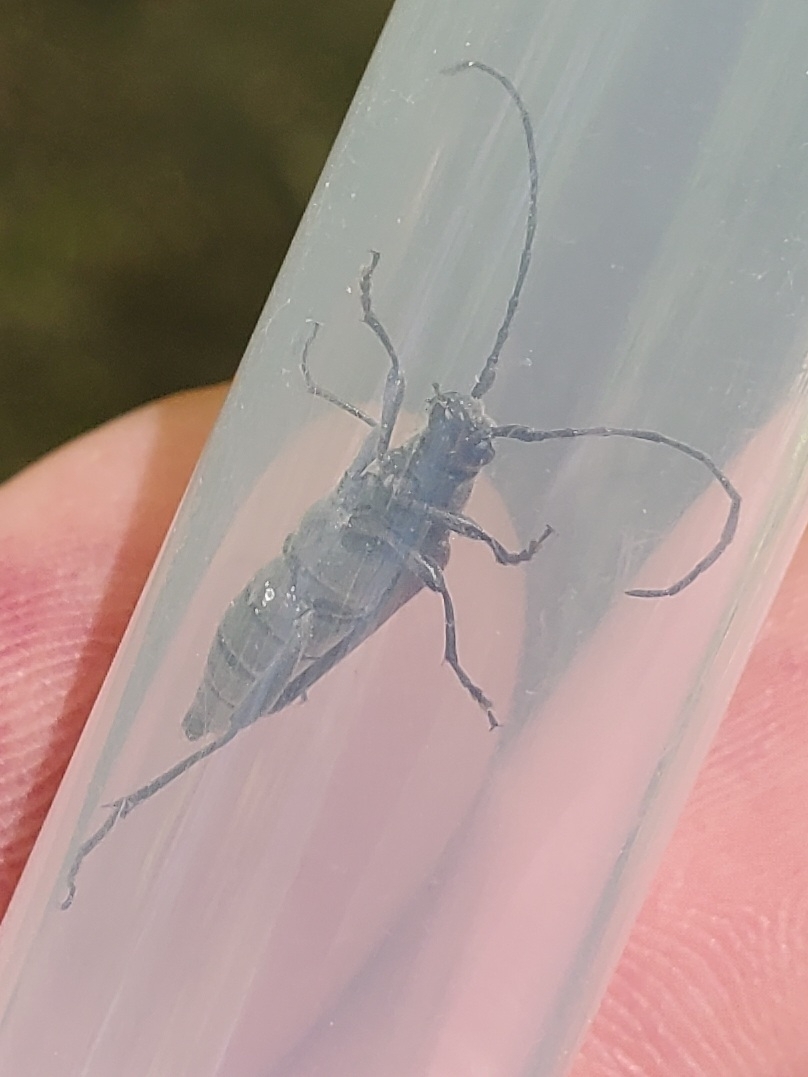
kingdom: Animalia
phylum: Arthropoda
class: Insecta
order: Coleoptera
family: Cerambycidae
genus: Trachysida
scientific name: Trachysida mutabilis
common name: Changeable flower longhorn
